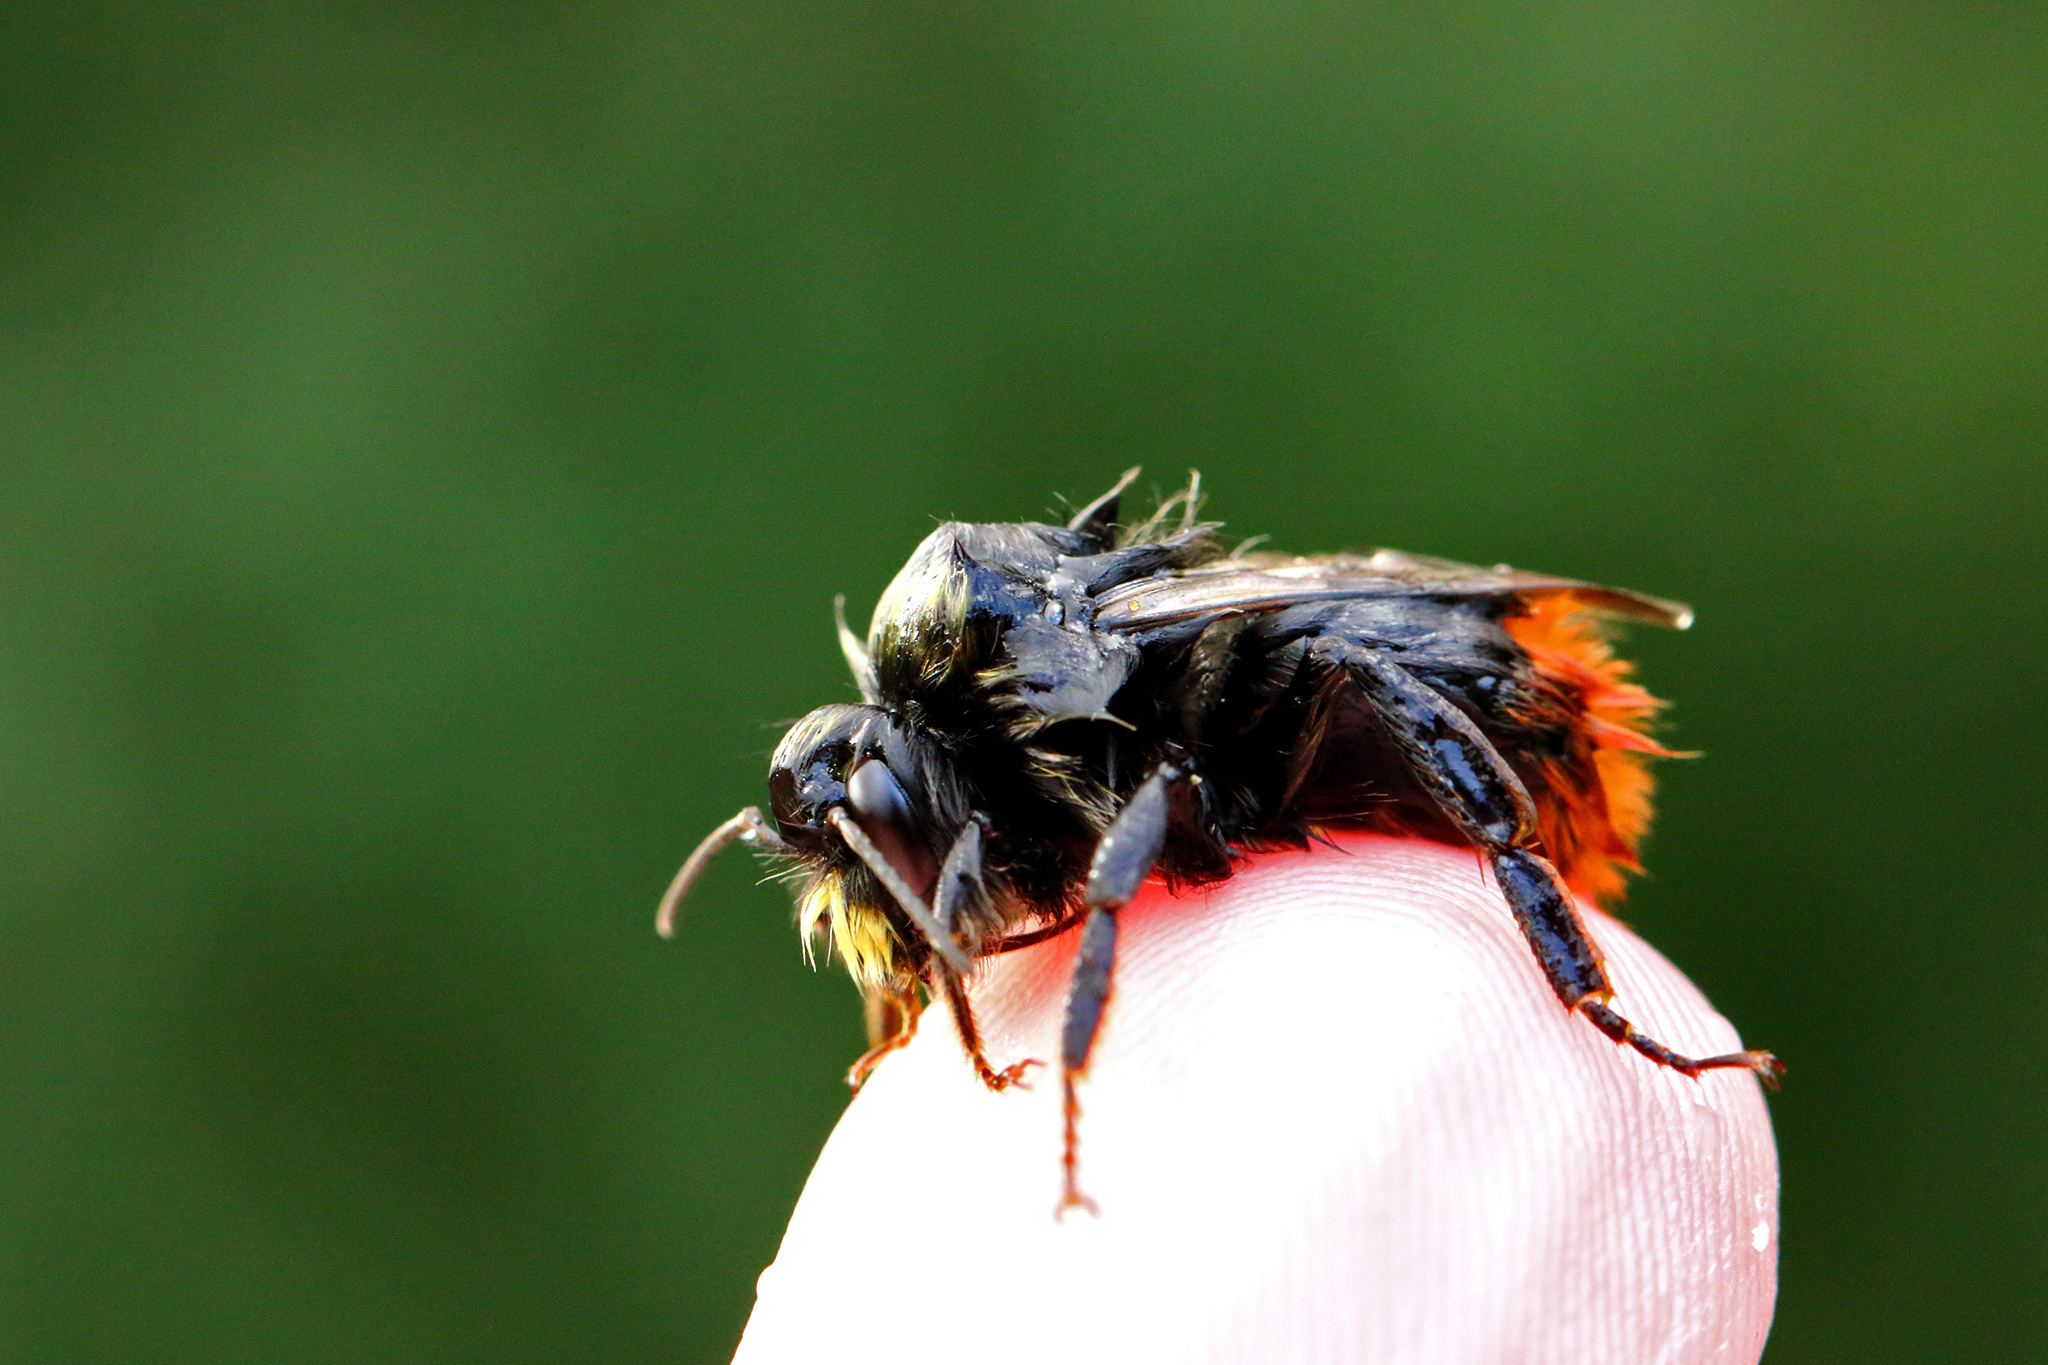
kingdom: Animalia
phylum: Arthropoda
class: Insecta
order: Hymenoptera
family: Apidae
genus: Bombus
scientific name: Bombus lapidarius
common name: Large red-tailed humble-bee
